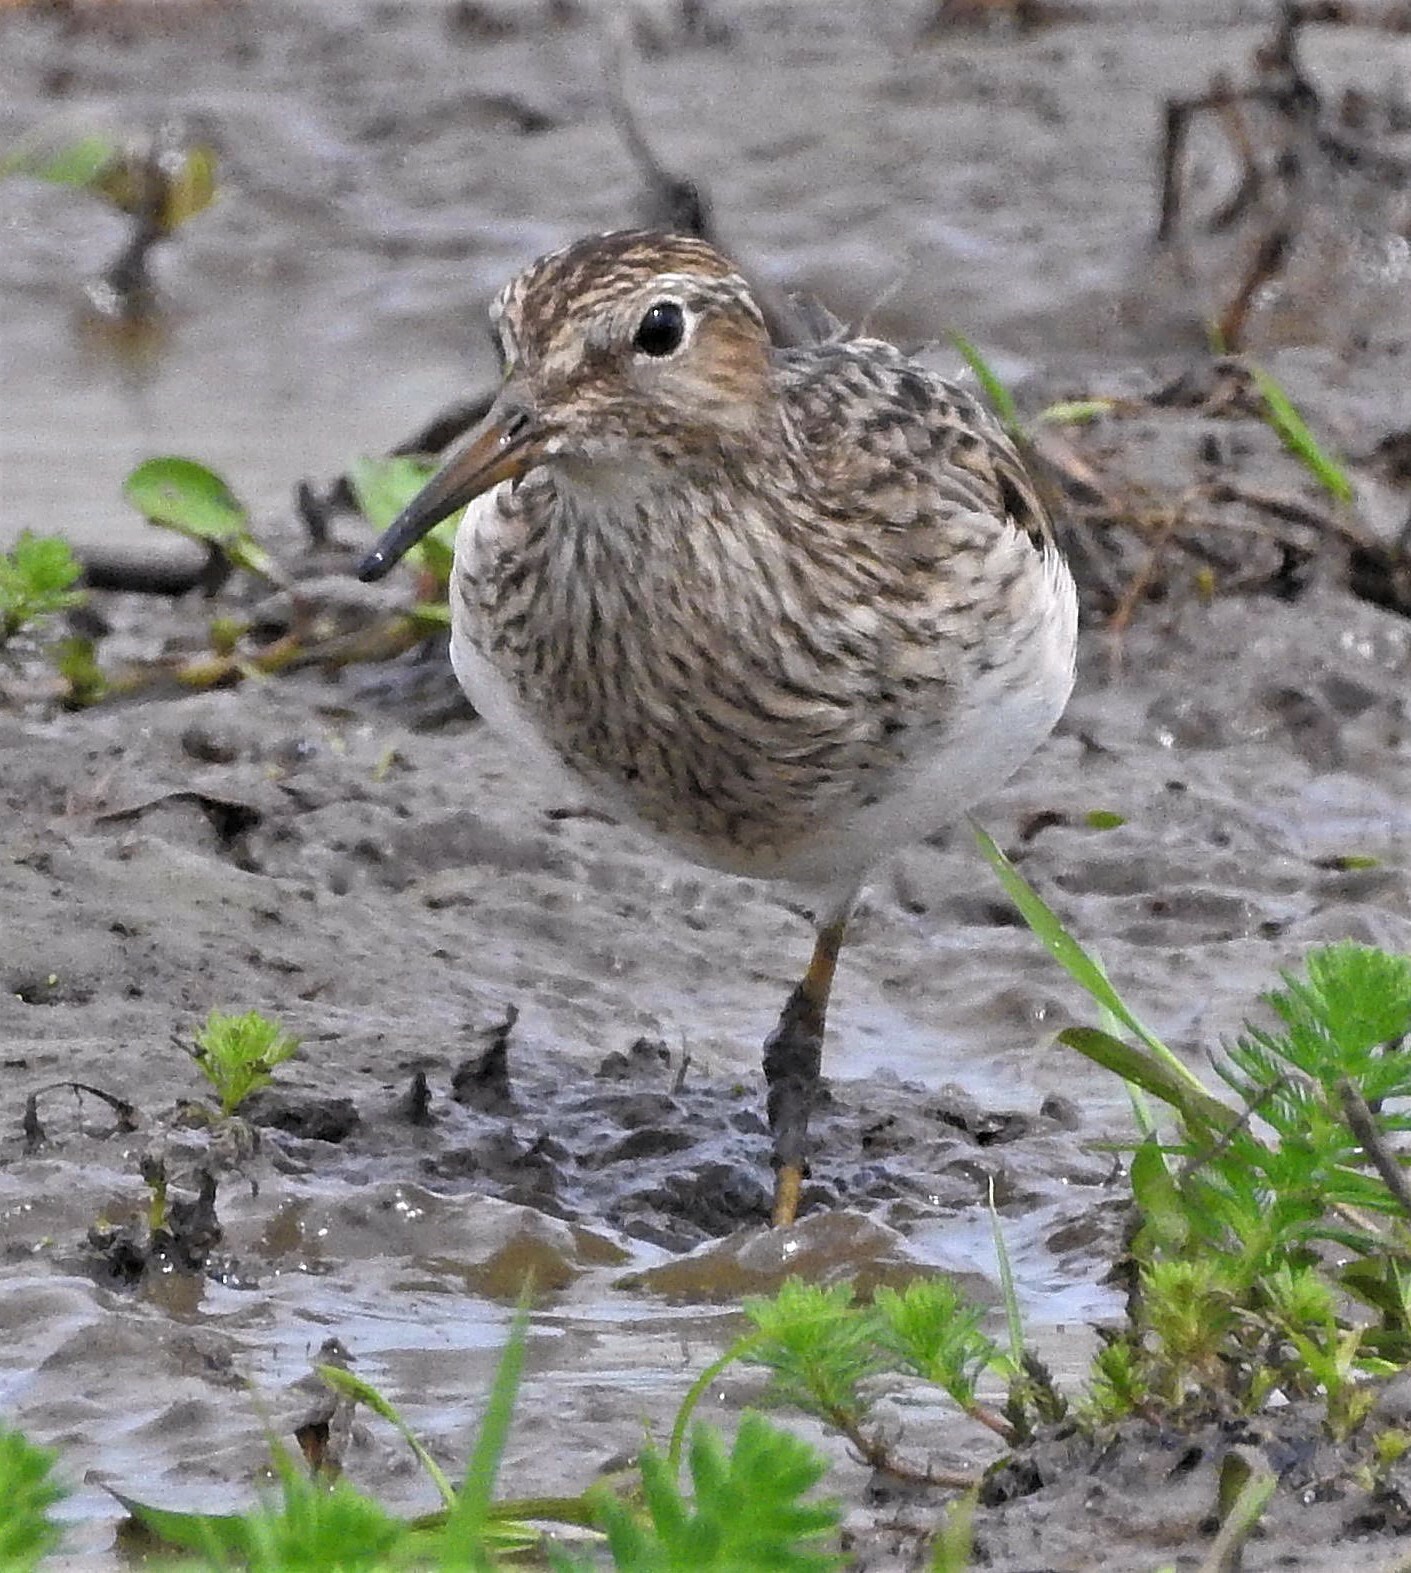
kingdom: Animalia
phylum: Chordata
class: Aves
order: Charadriiformes
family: Scolopacidae
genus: Calidris
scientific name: Calidris melanotos
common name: Pectoral sandpiper
